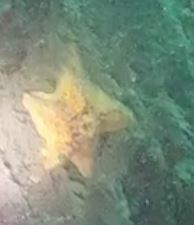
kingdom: Animalia
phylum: Echinodermata
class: Asteroidea
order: Valvatida
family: Asterinidae
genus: Patiria
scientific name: Patiria miniata
